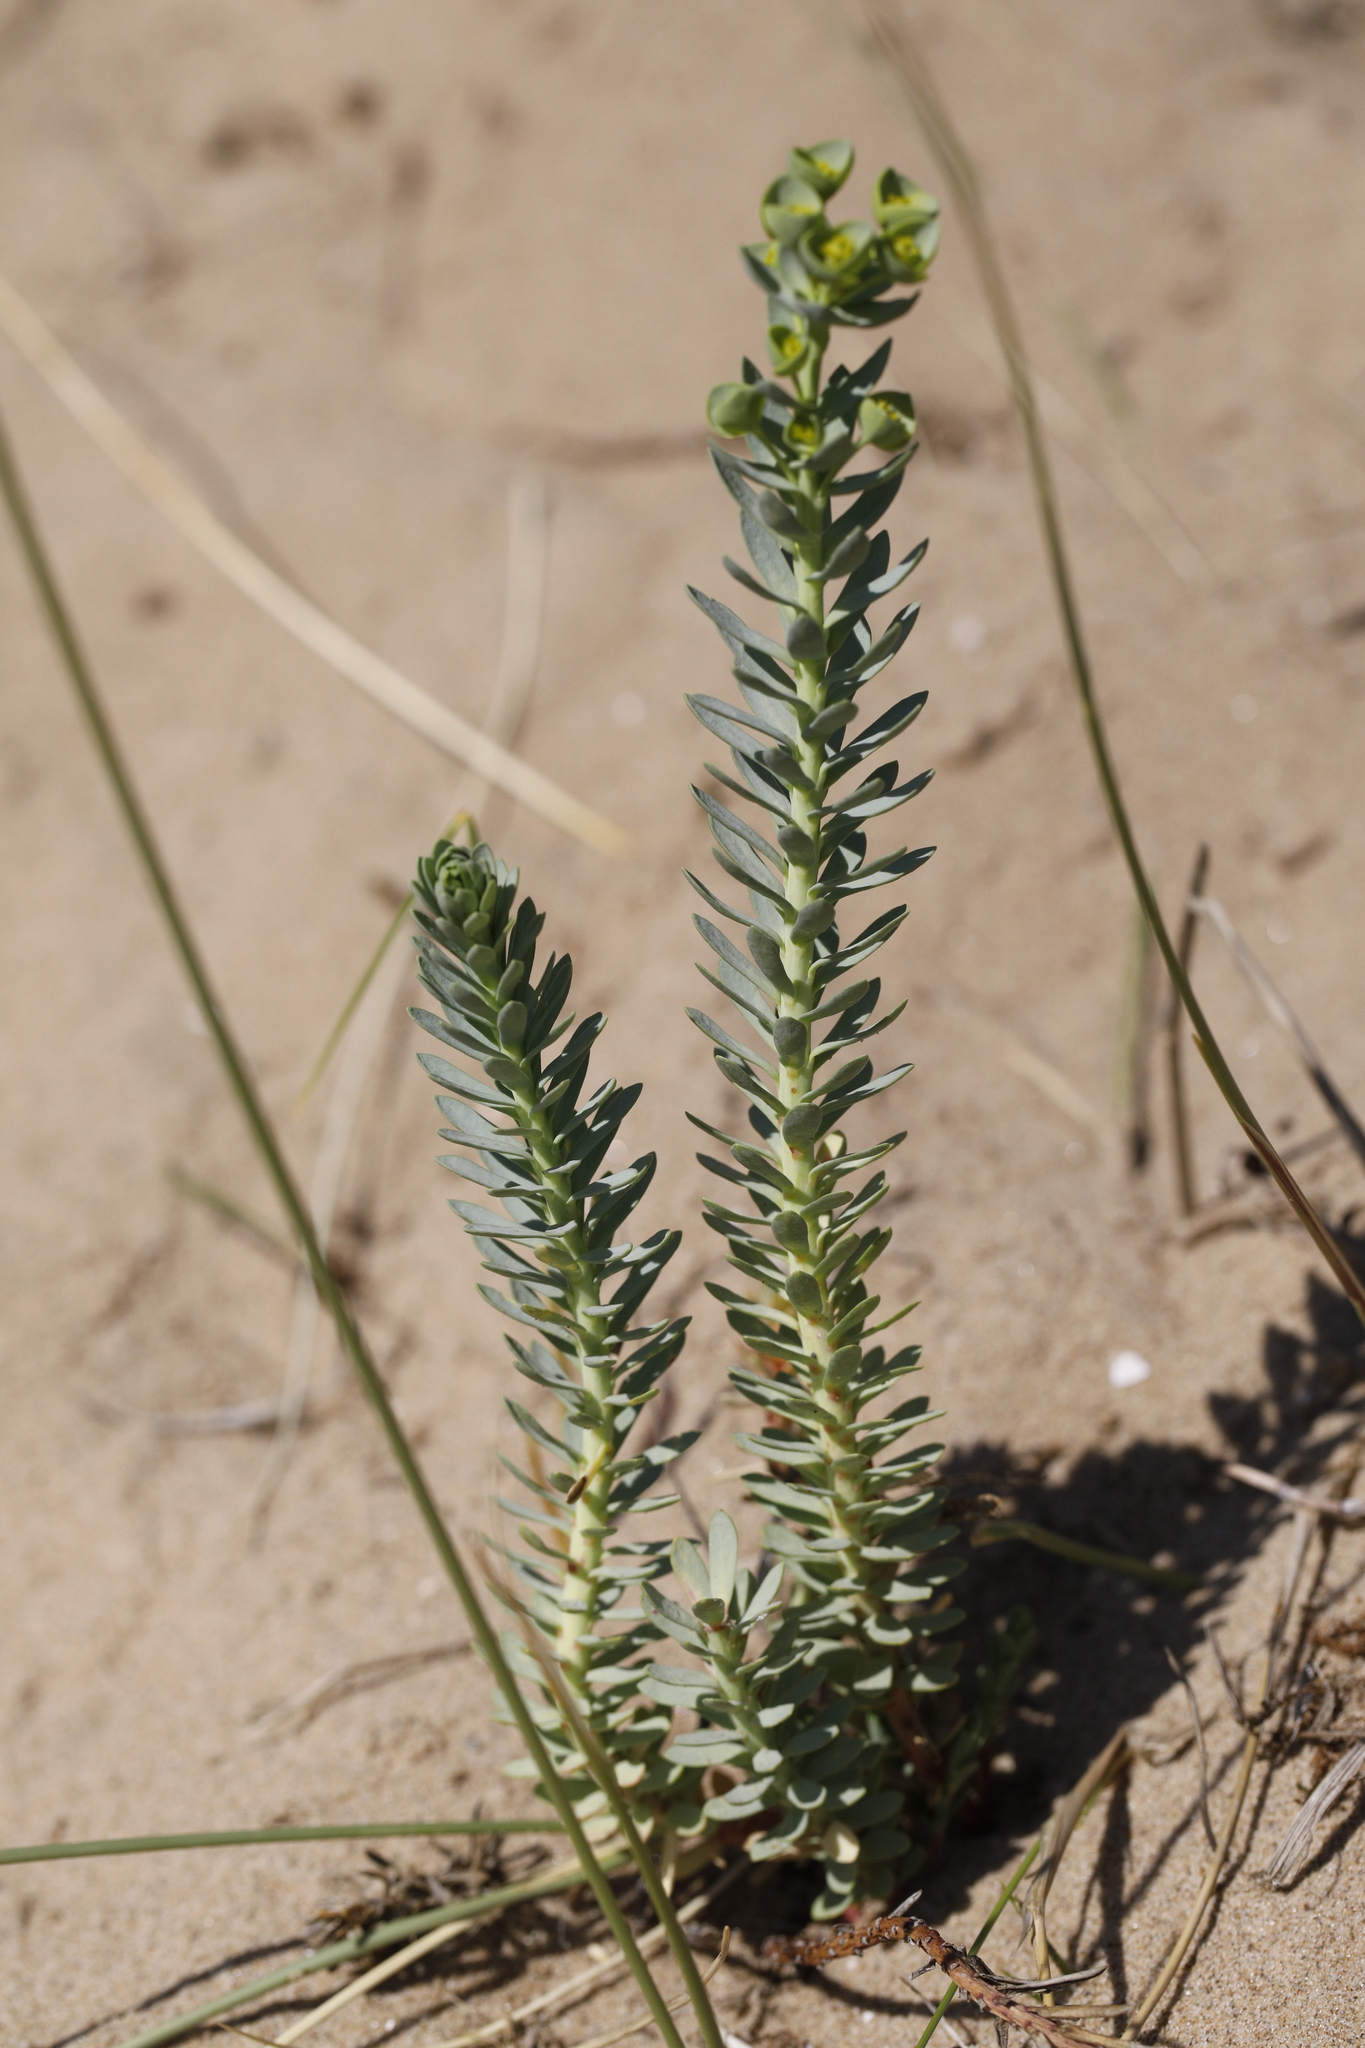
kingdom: Plantae
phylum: Tracheophyta
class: Magnoliopsida
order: Malpighiales
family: Euphorbiaceae
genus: Euphorbia
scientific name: Euphorbia paralias
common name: Sea spurge
